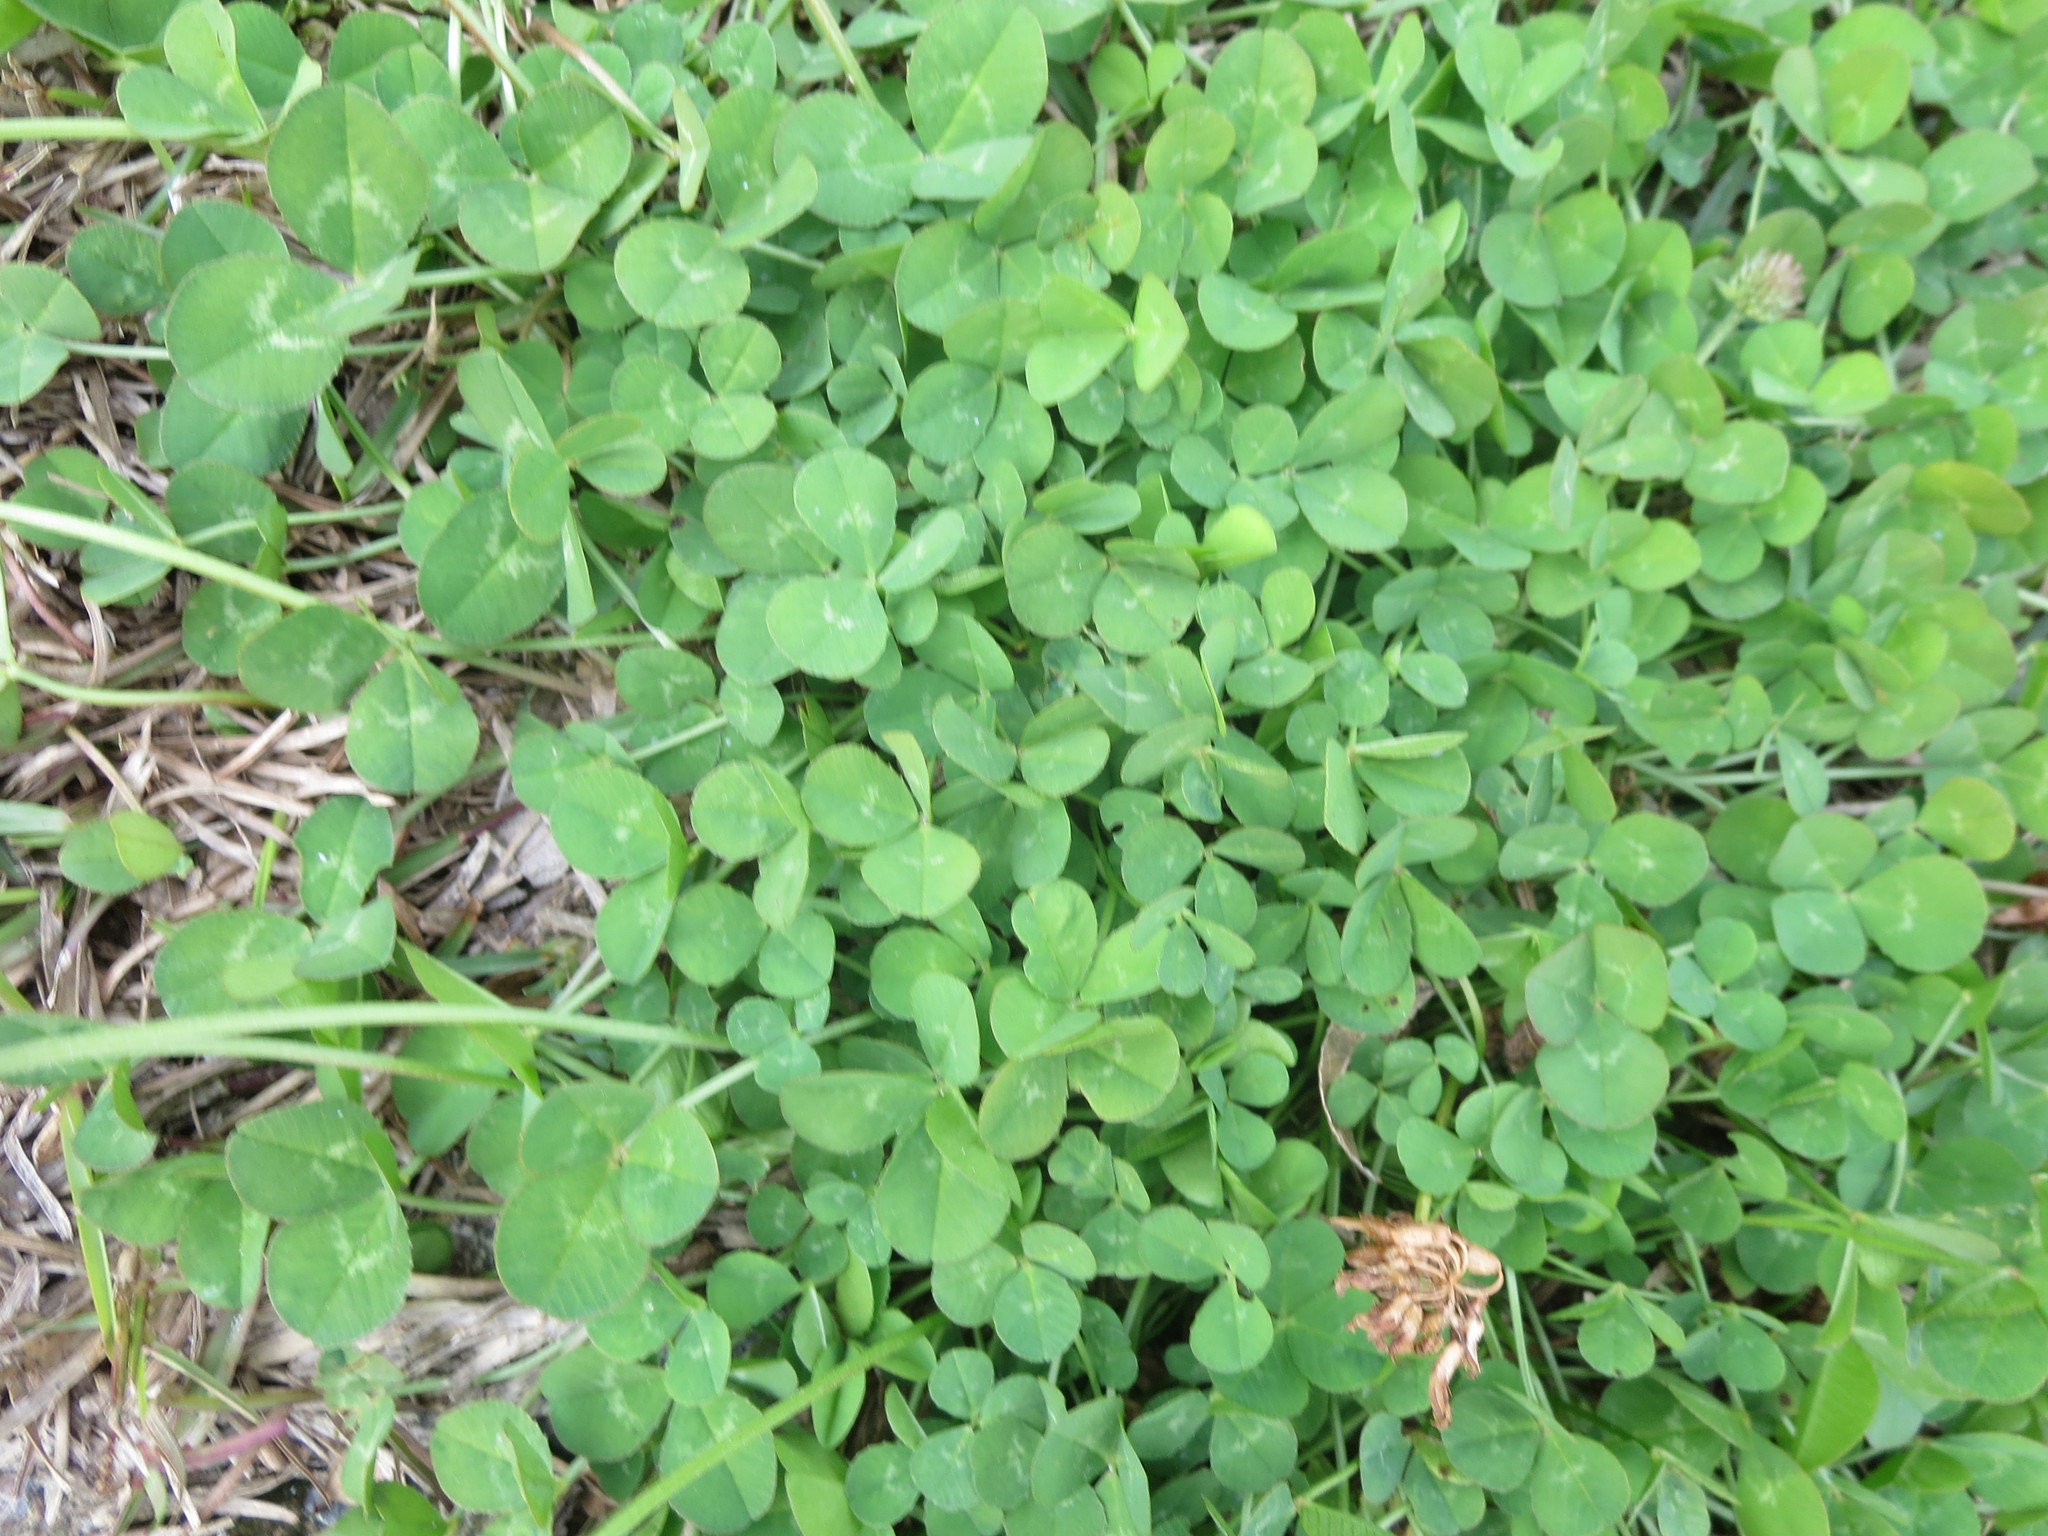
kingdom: Plantae
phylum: Tracheophyta
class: Magnoliopsida
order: Fabales
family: Fabaceae
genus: Trifolium
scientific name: Trifolium repens
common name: White clover
